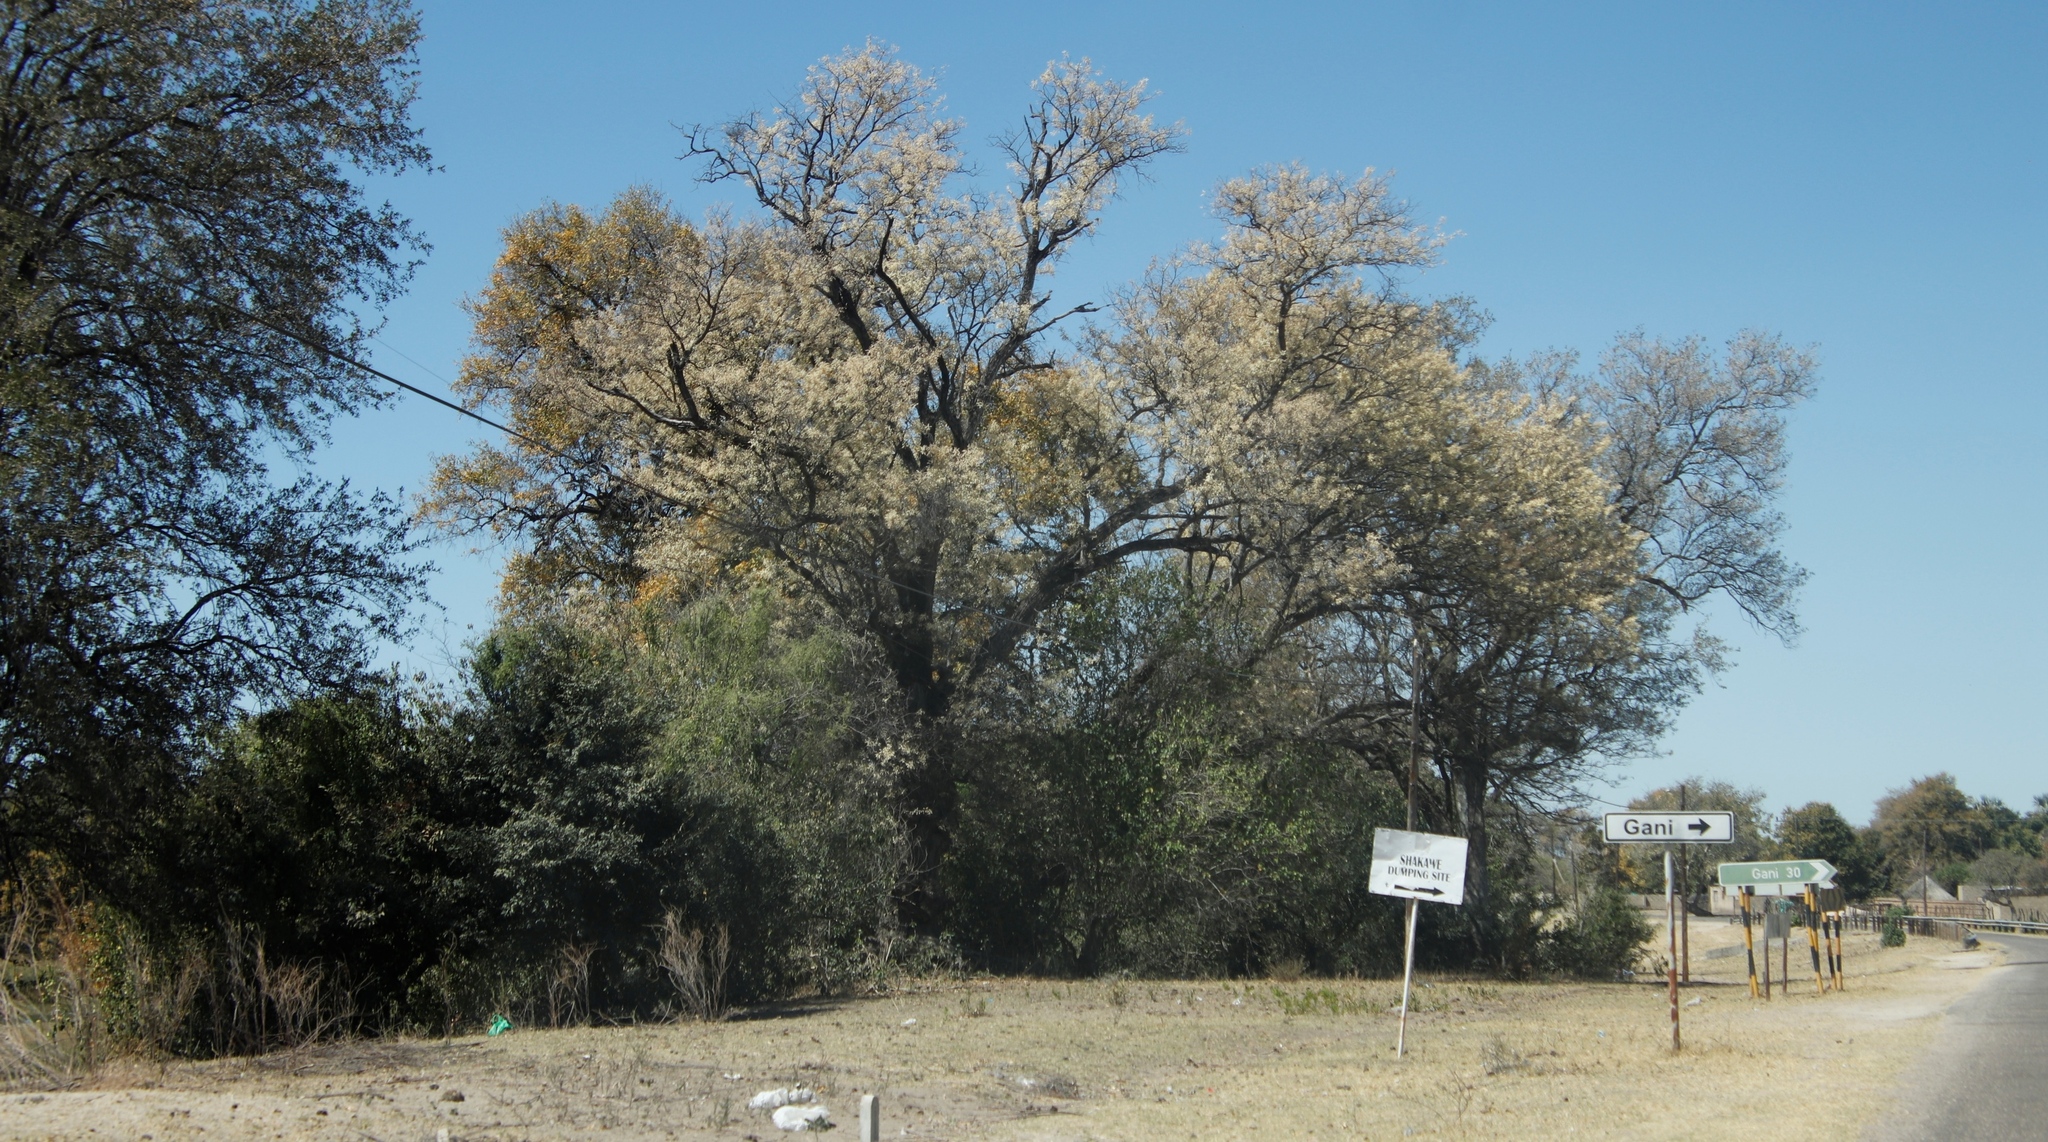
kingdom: Plantae
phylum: Tracheophyta
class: Magnoliopsida
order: Fabales
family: Fabaceae
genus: Senegalia
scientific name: Senegalia nigrescens
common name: Knobthorn
